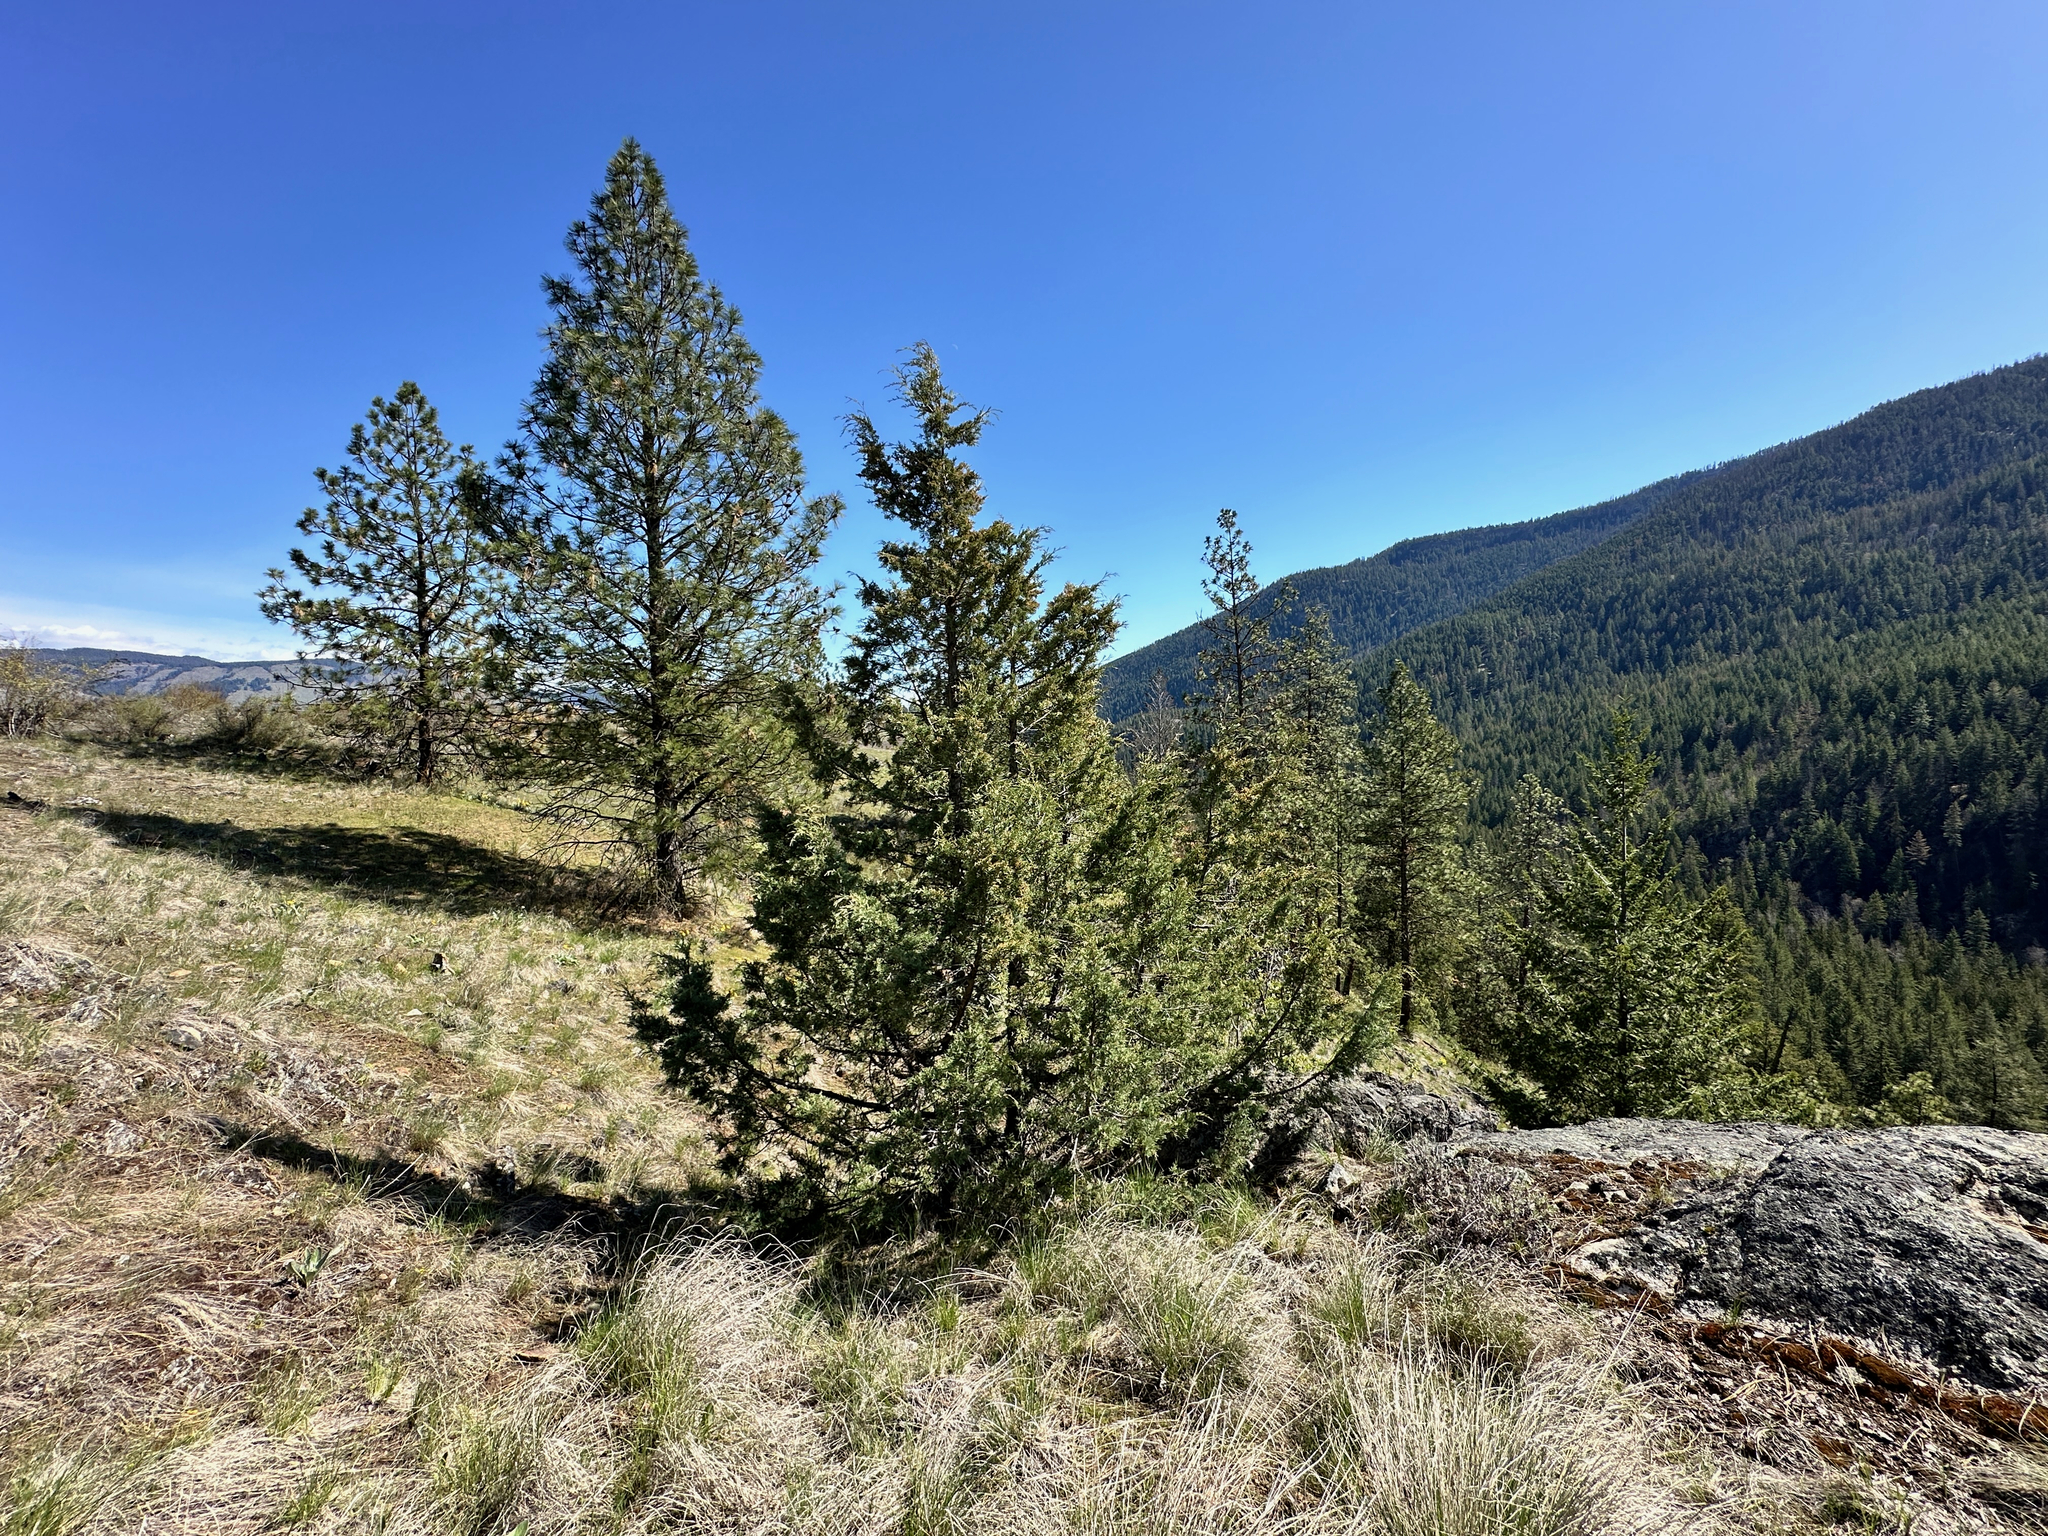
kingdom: Plantae
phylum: Tracheophyta
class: Pinopsida
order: Pinales
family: Cupressaceae
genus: Juniperus
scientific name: Juniperus scopulorum
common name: Rocky mountain juniper
